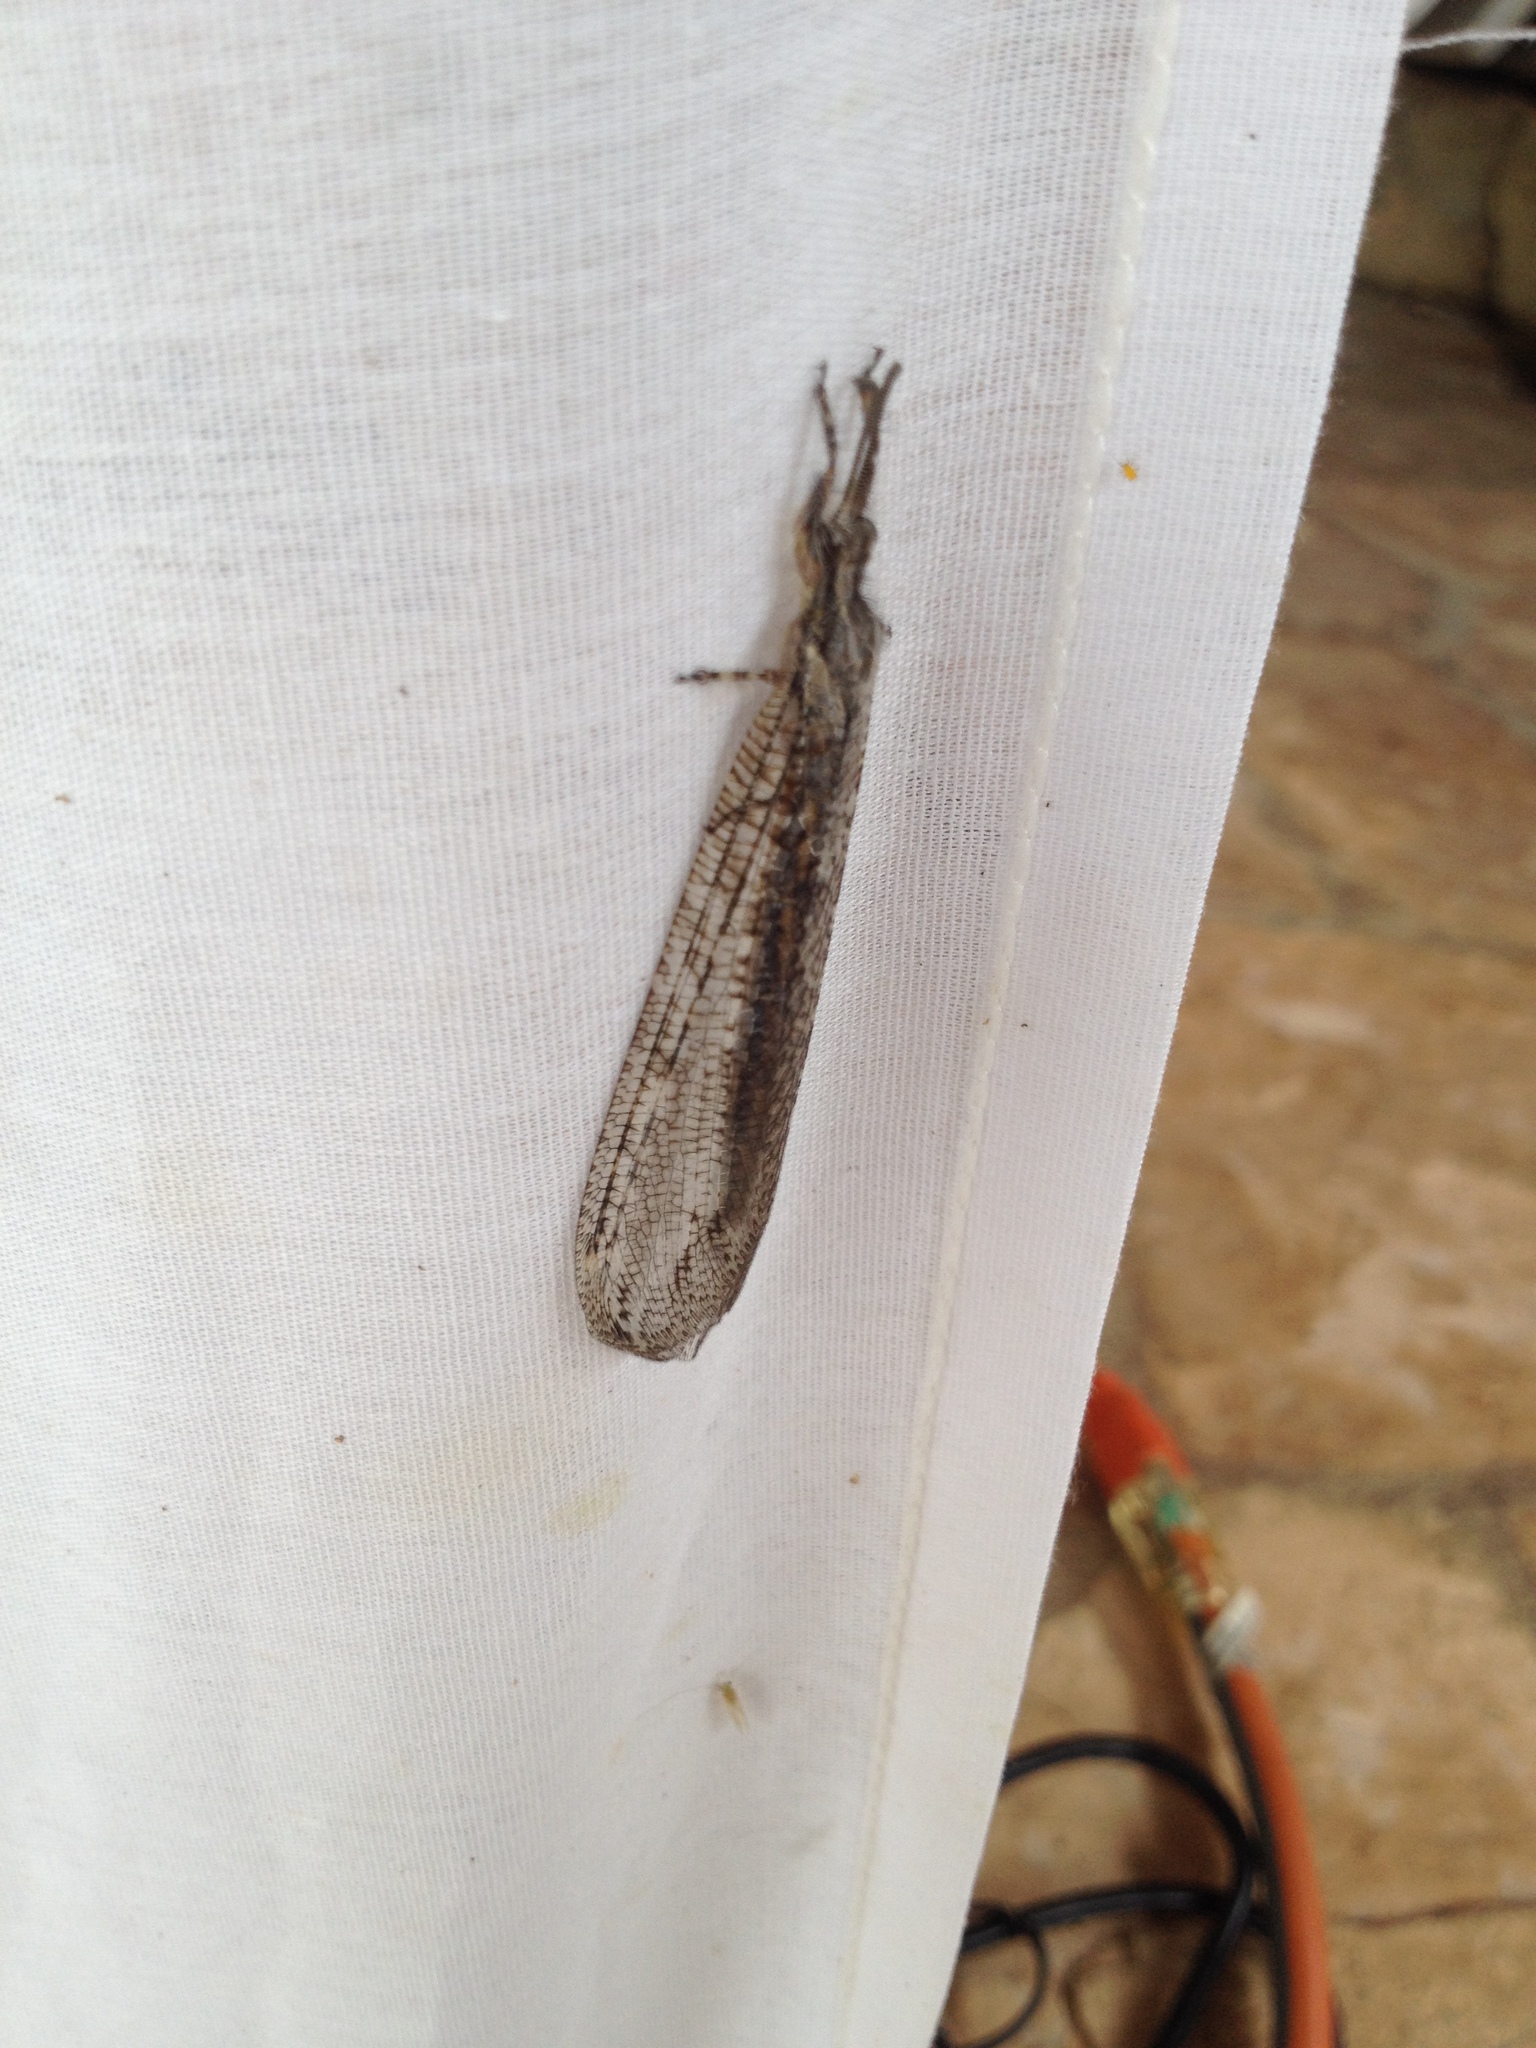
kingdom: Animalia
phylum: Arthropoda
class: Insecta
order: Neuroptera
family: Myrmeleontidae
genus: Vella
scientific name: Vella fallax
